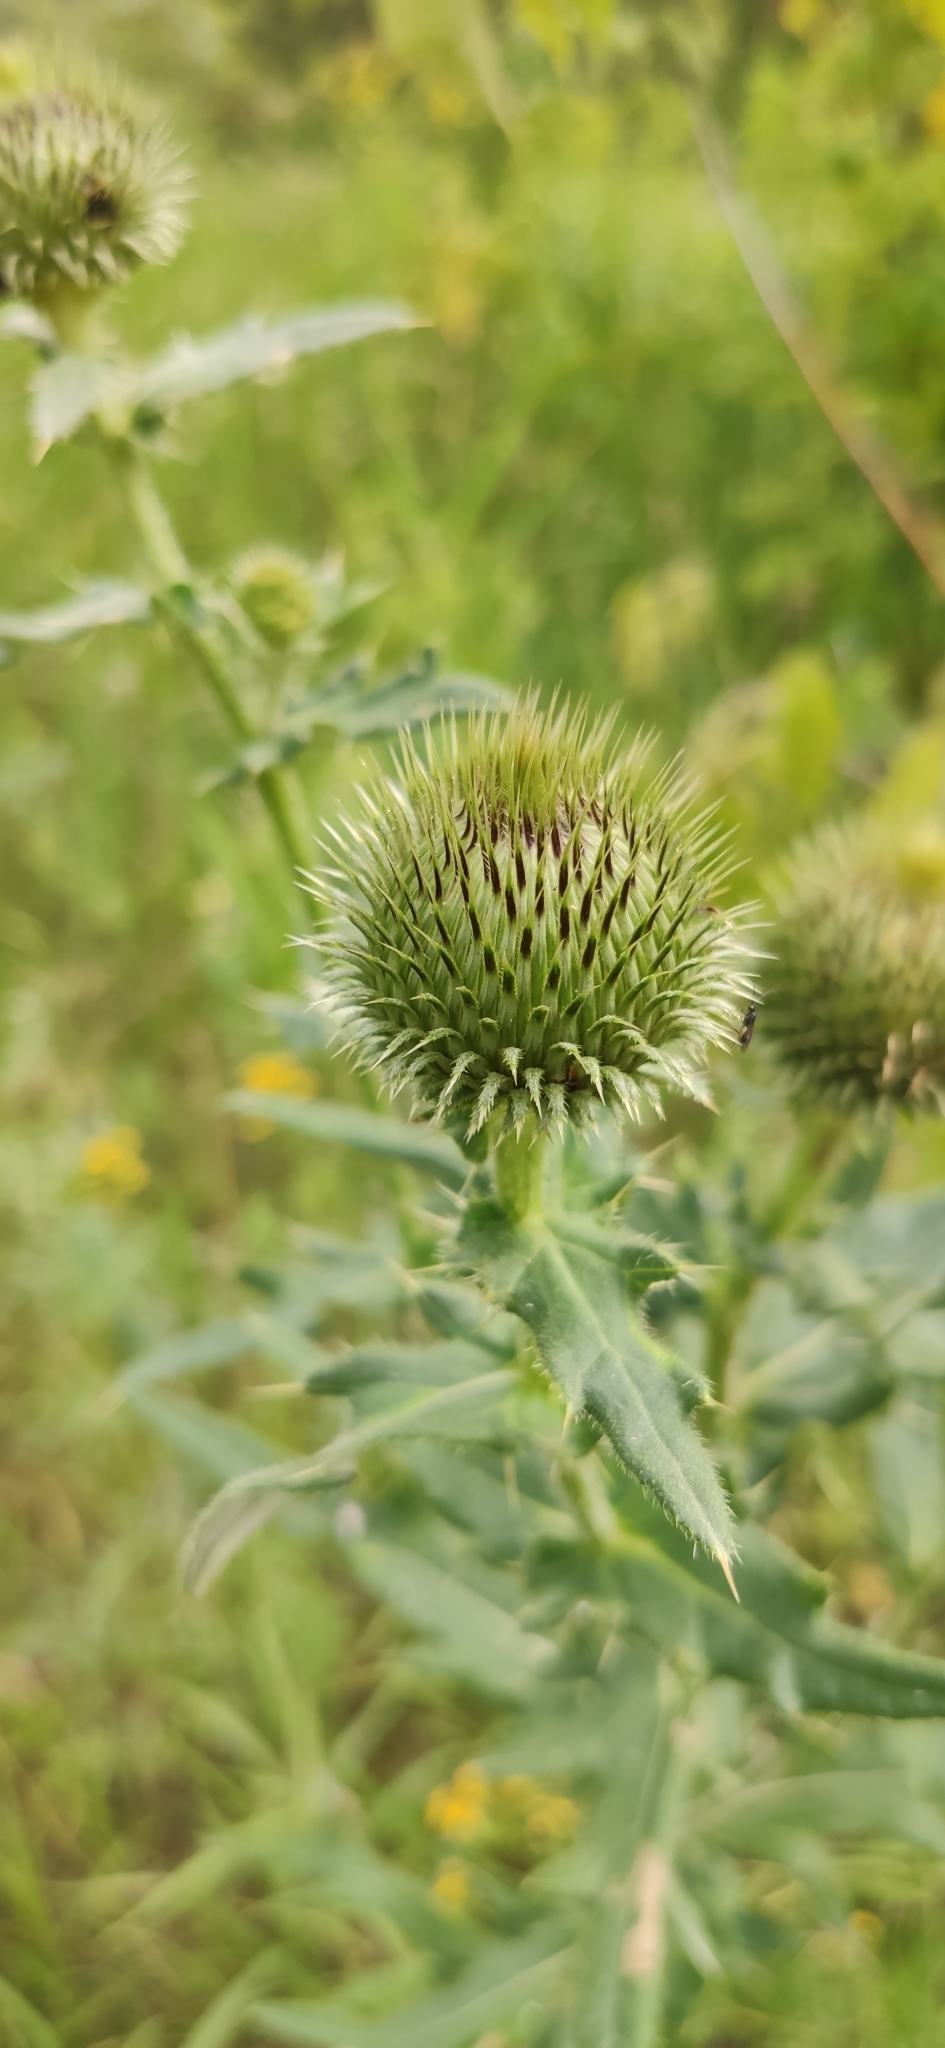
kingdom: Plantae
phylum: Tracheophyta
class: Magnoliopsida
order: Asterales
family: Asteraceae
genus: Cirsium
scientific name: Cirsium serrulatum
